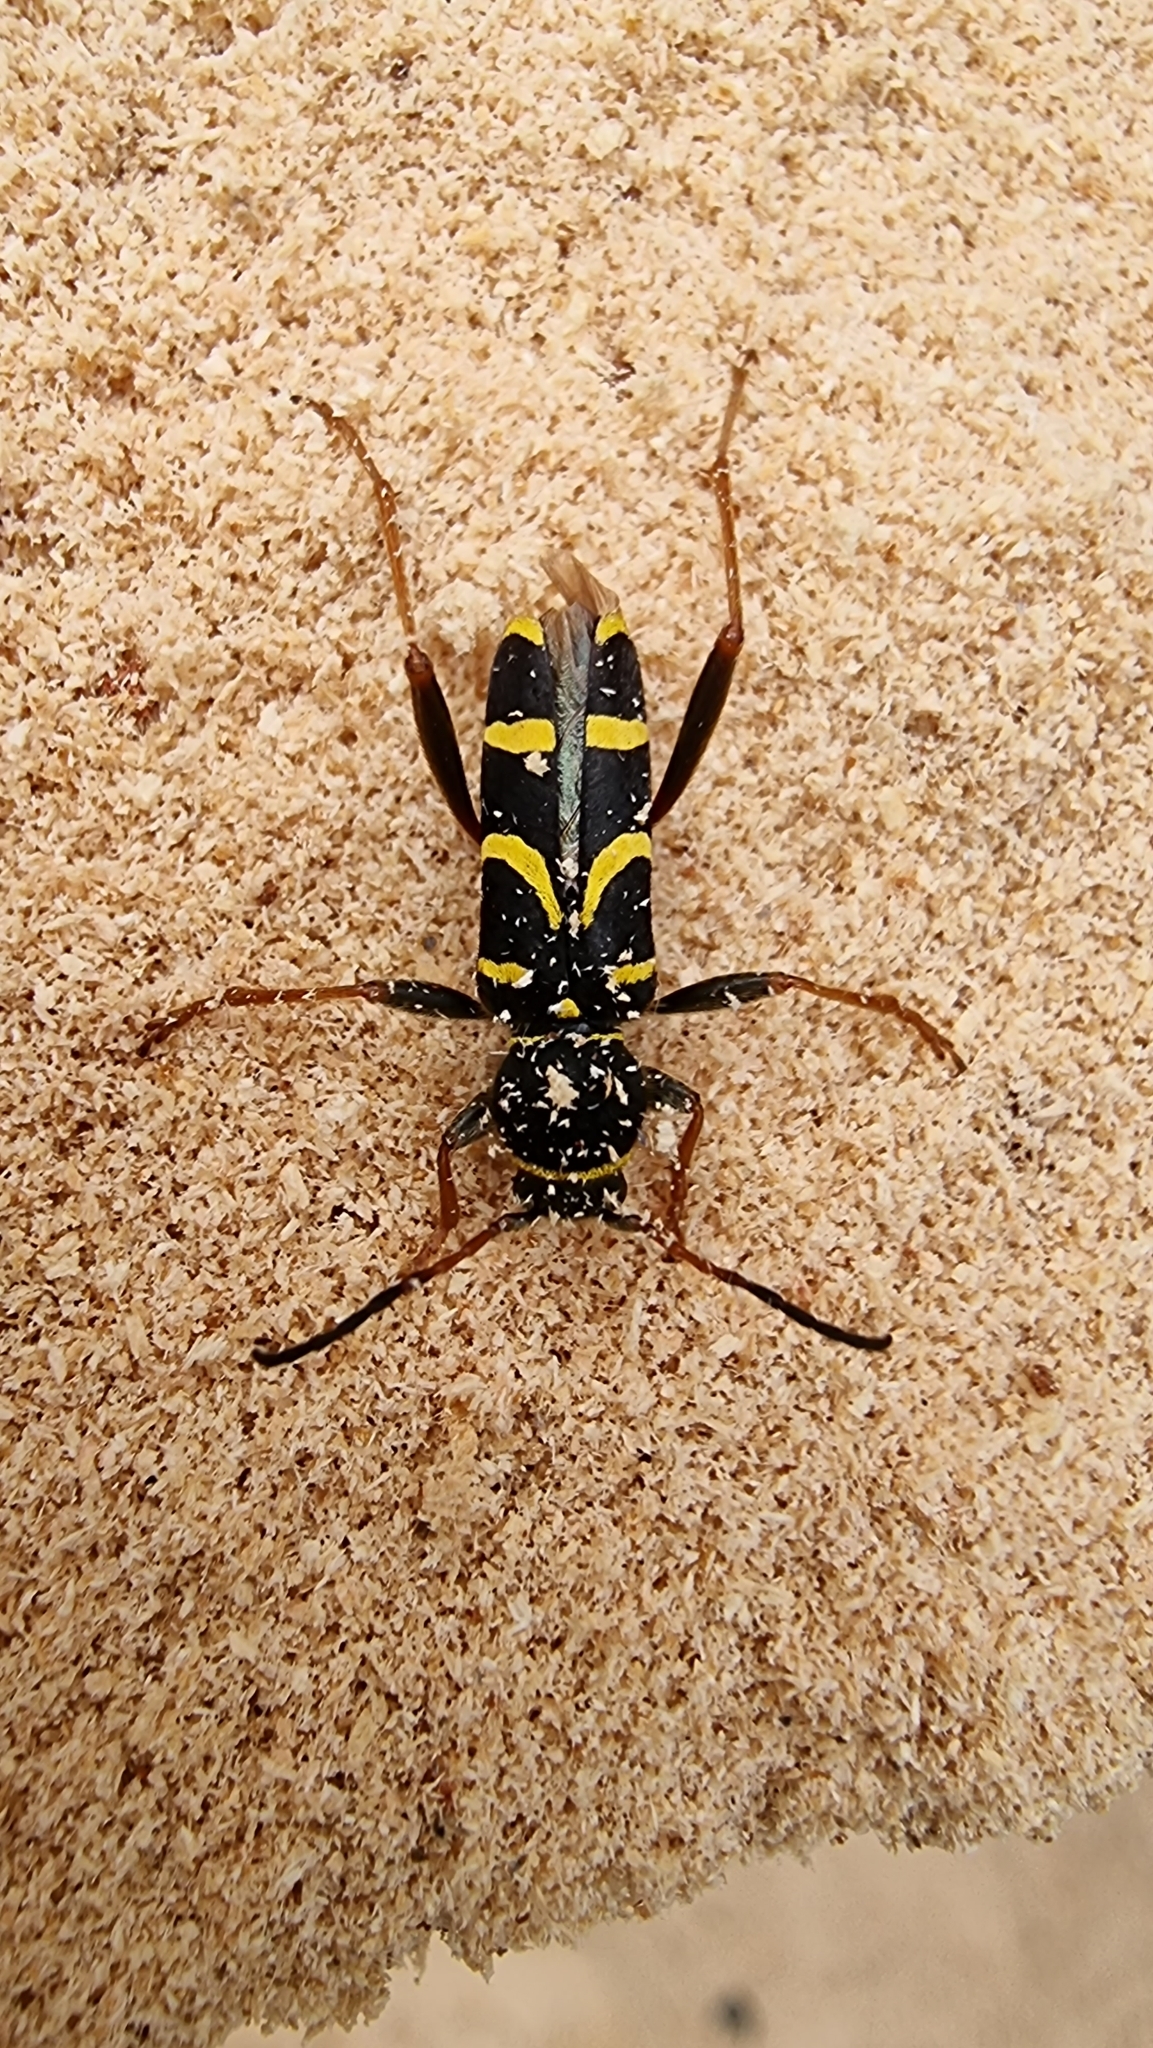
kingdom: Animalia
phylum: Arthropoda
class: Insecta
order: Coleoptera
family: Cerambycidae
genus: Clytus
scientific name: Clytus arietis
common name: Wasp beetle
